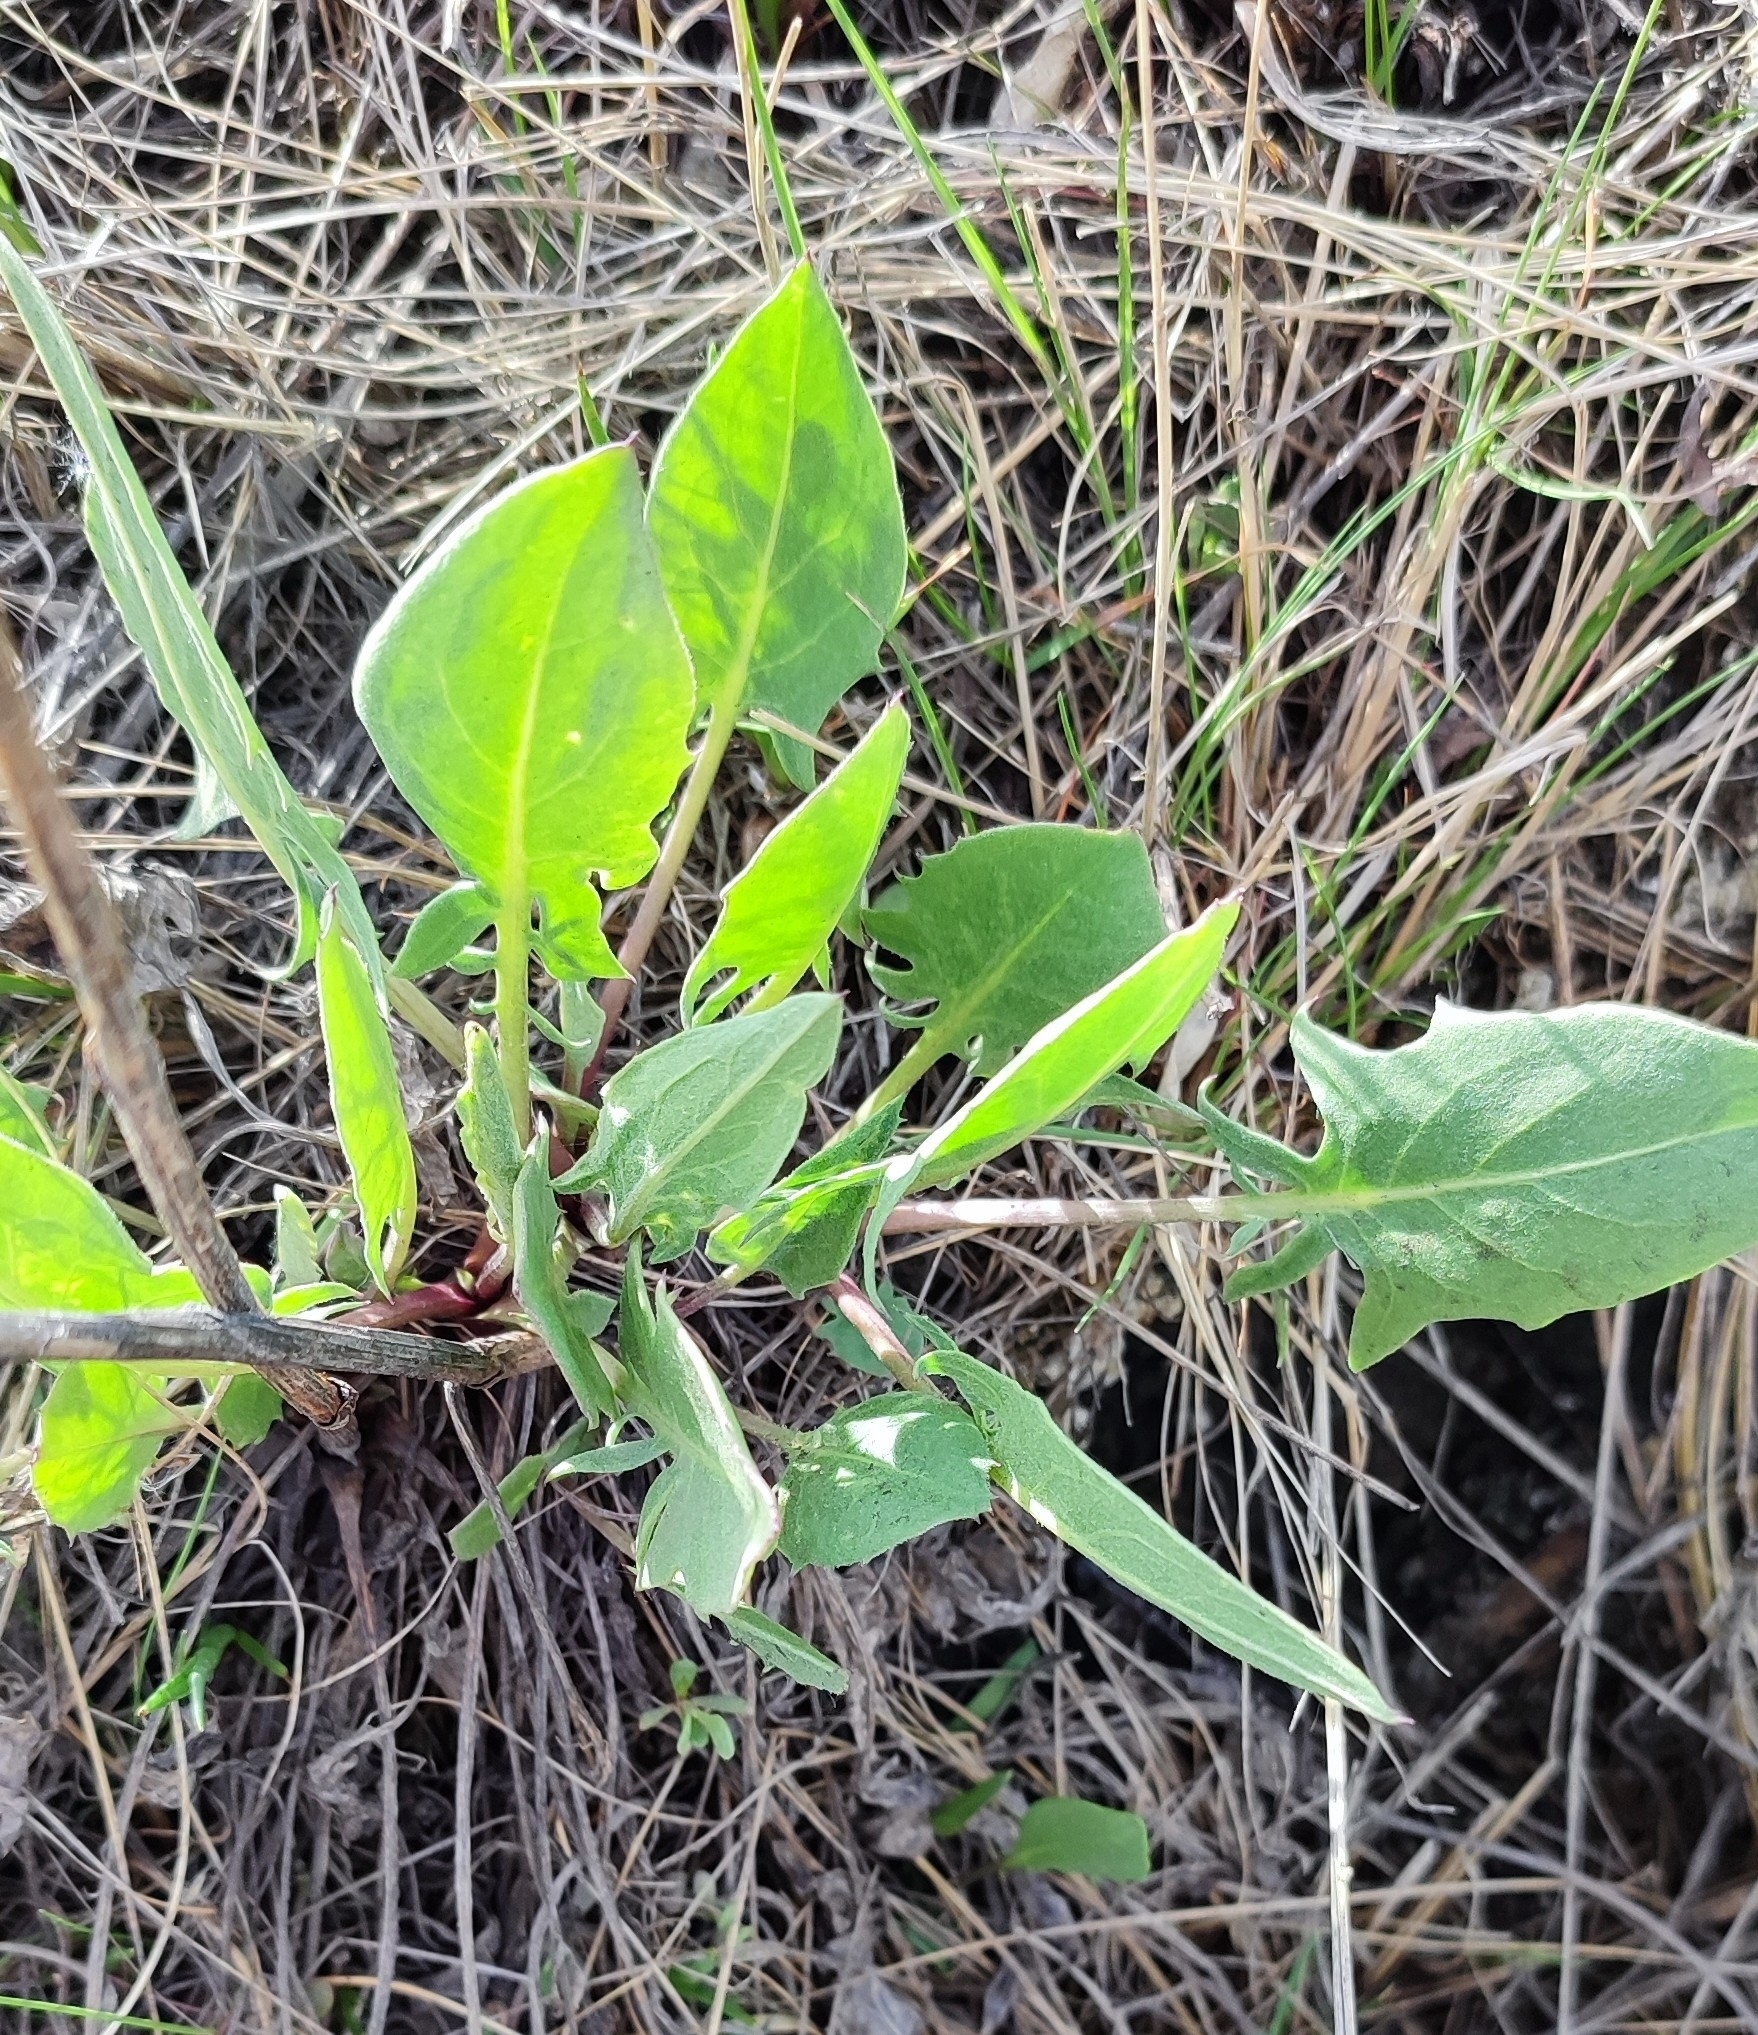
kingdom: Plantae
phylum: Tracheophyta
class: Magnoliopsida
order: Asterales
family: Asteraceae
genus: Saussurea
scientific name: Saussurea amara
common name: Alberta sawwort
